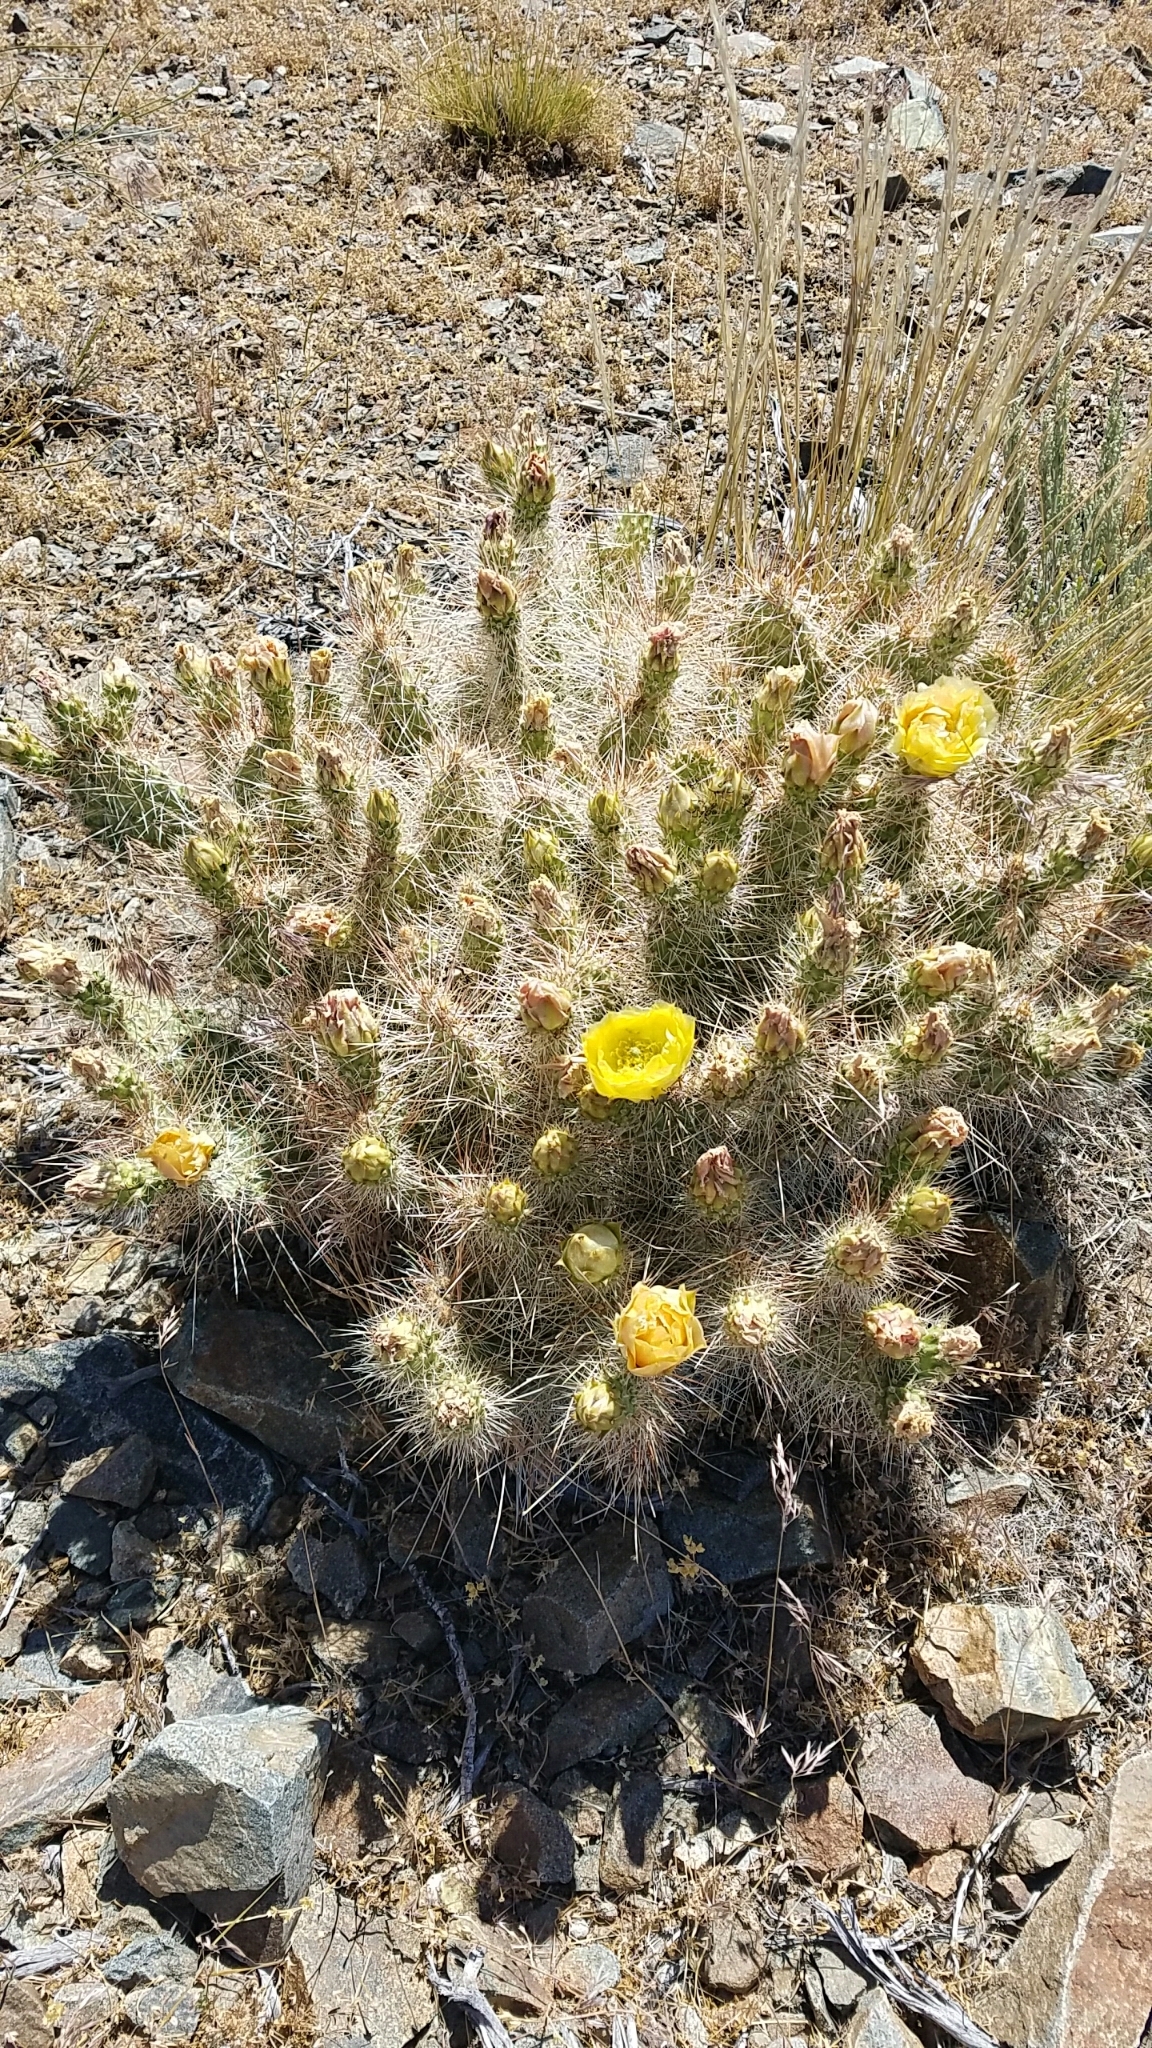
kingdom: Plantae
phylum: Tracheophyta
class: Magnoliopsida
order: Caryophyllales
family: Cactaceae
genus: Opuntia
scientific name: Opuntia polyacantha
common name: Plains prickly-pear
